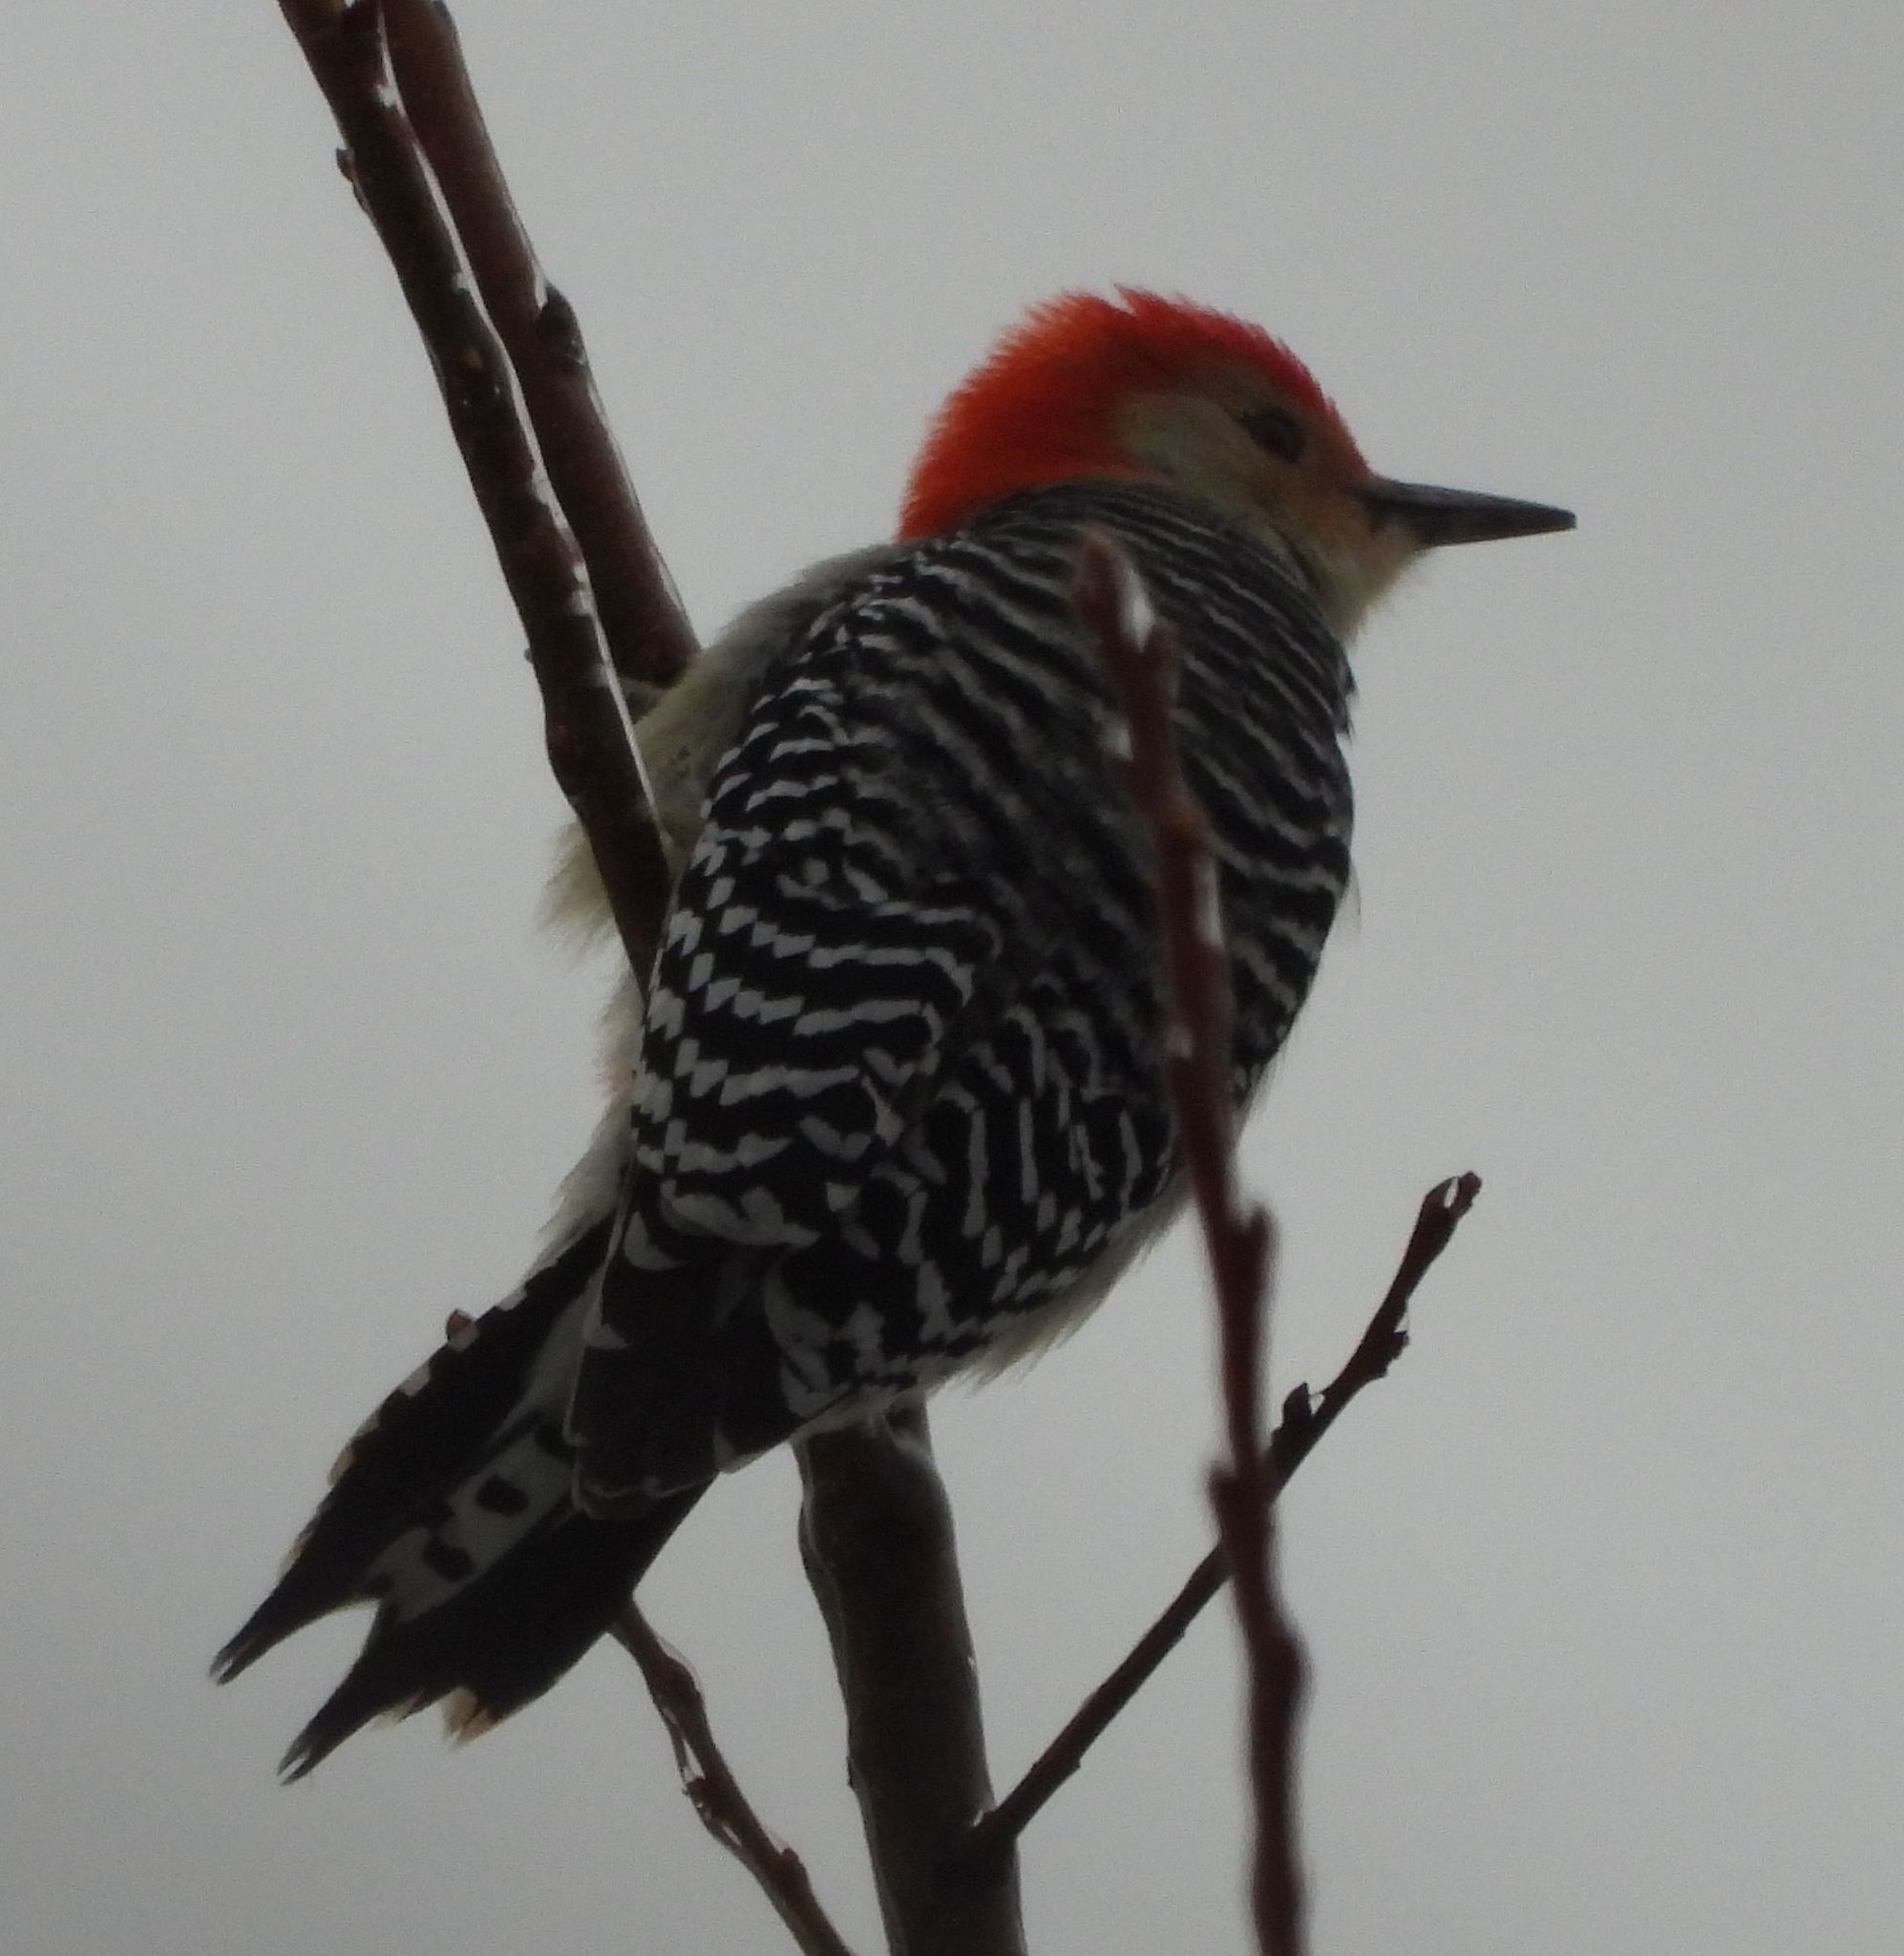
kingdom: Animalia
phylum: Chordata
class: Aves
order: Piciformes
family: Picidae
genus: Melanerpes
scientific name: Melanerpes carolinus
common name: Red-bellied woodpecker
